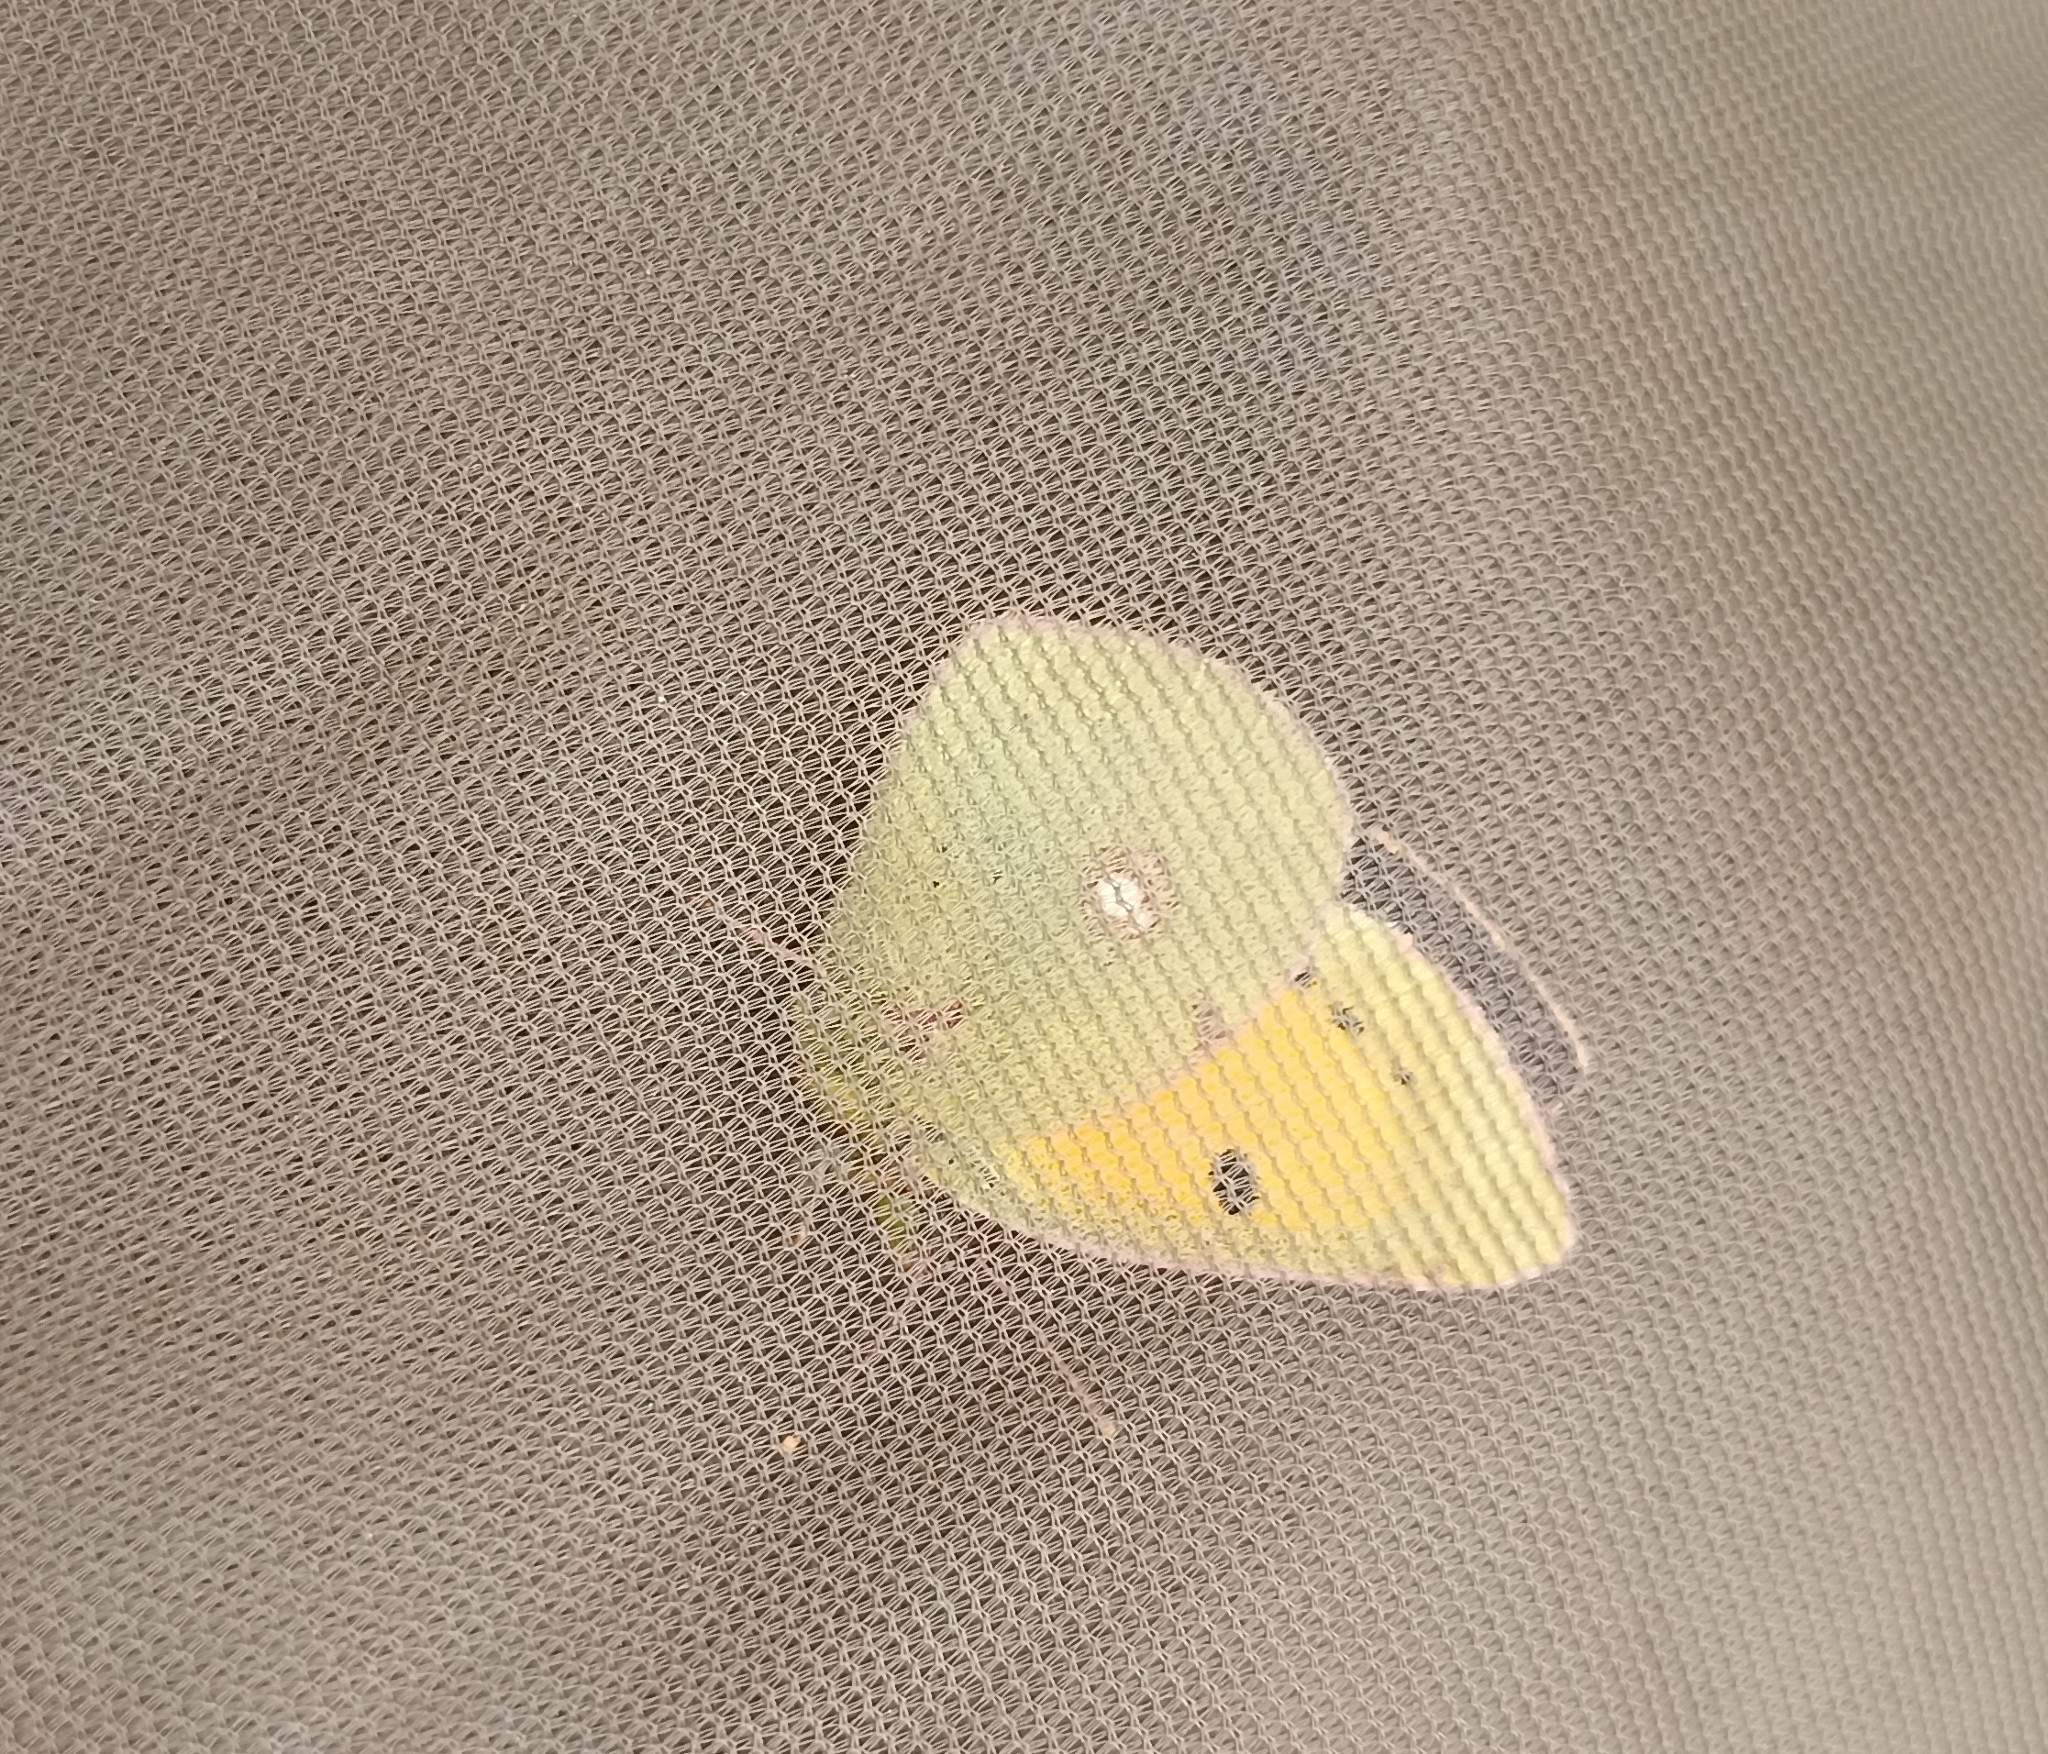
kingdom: Animalia
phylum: Arthropoda
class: Insecta
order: Lepidoptera
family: Pieridae
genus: Colias
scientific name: Colias croceus
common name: Clouded yellow
